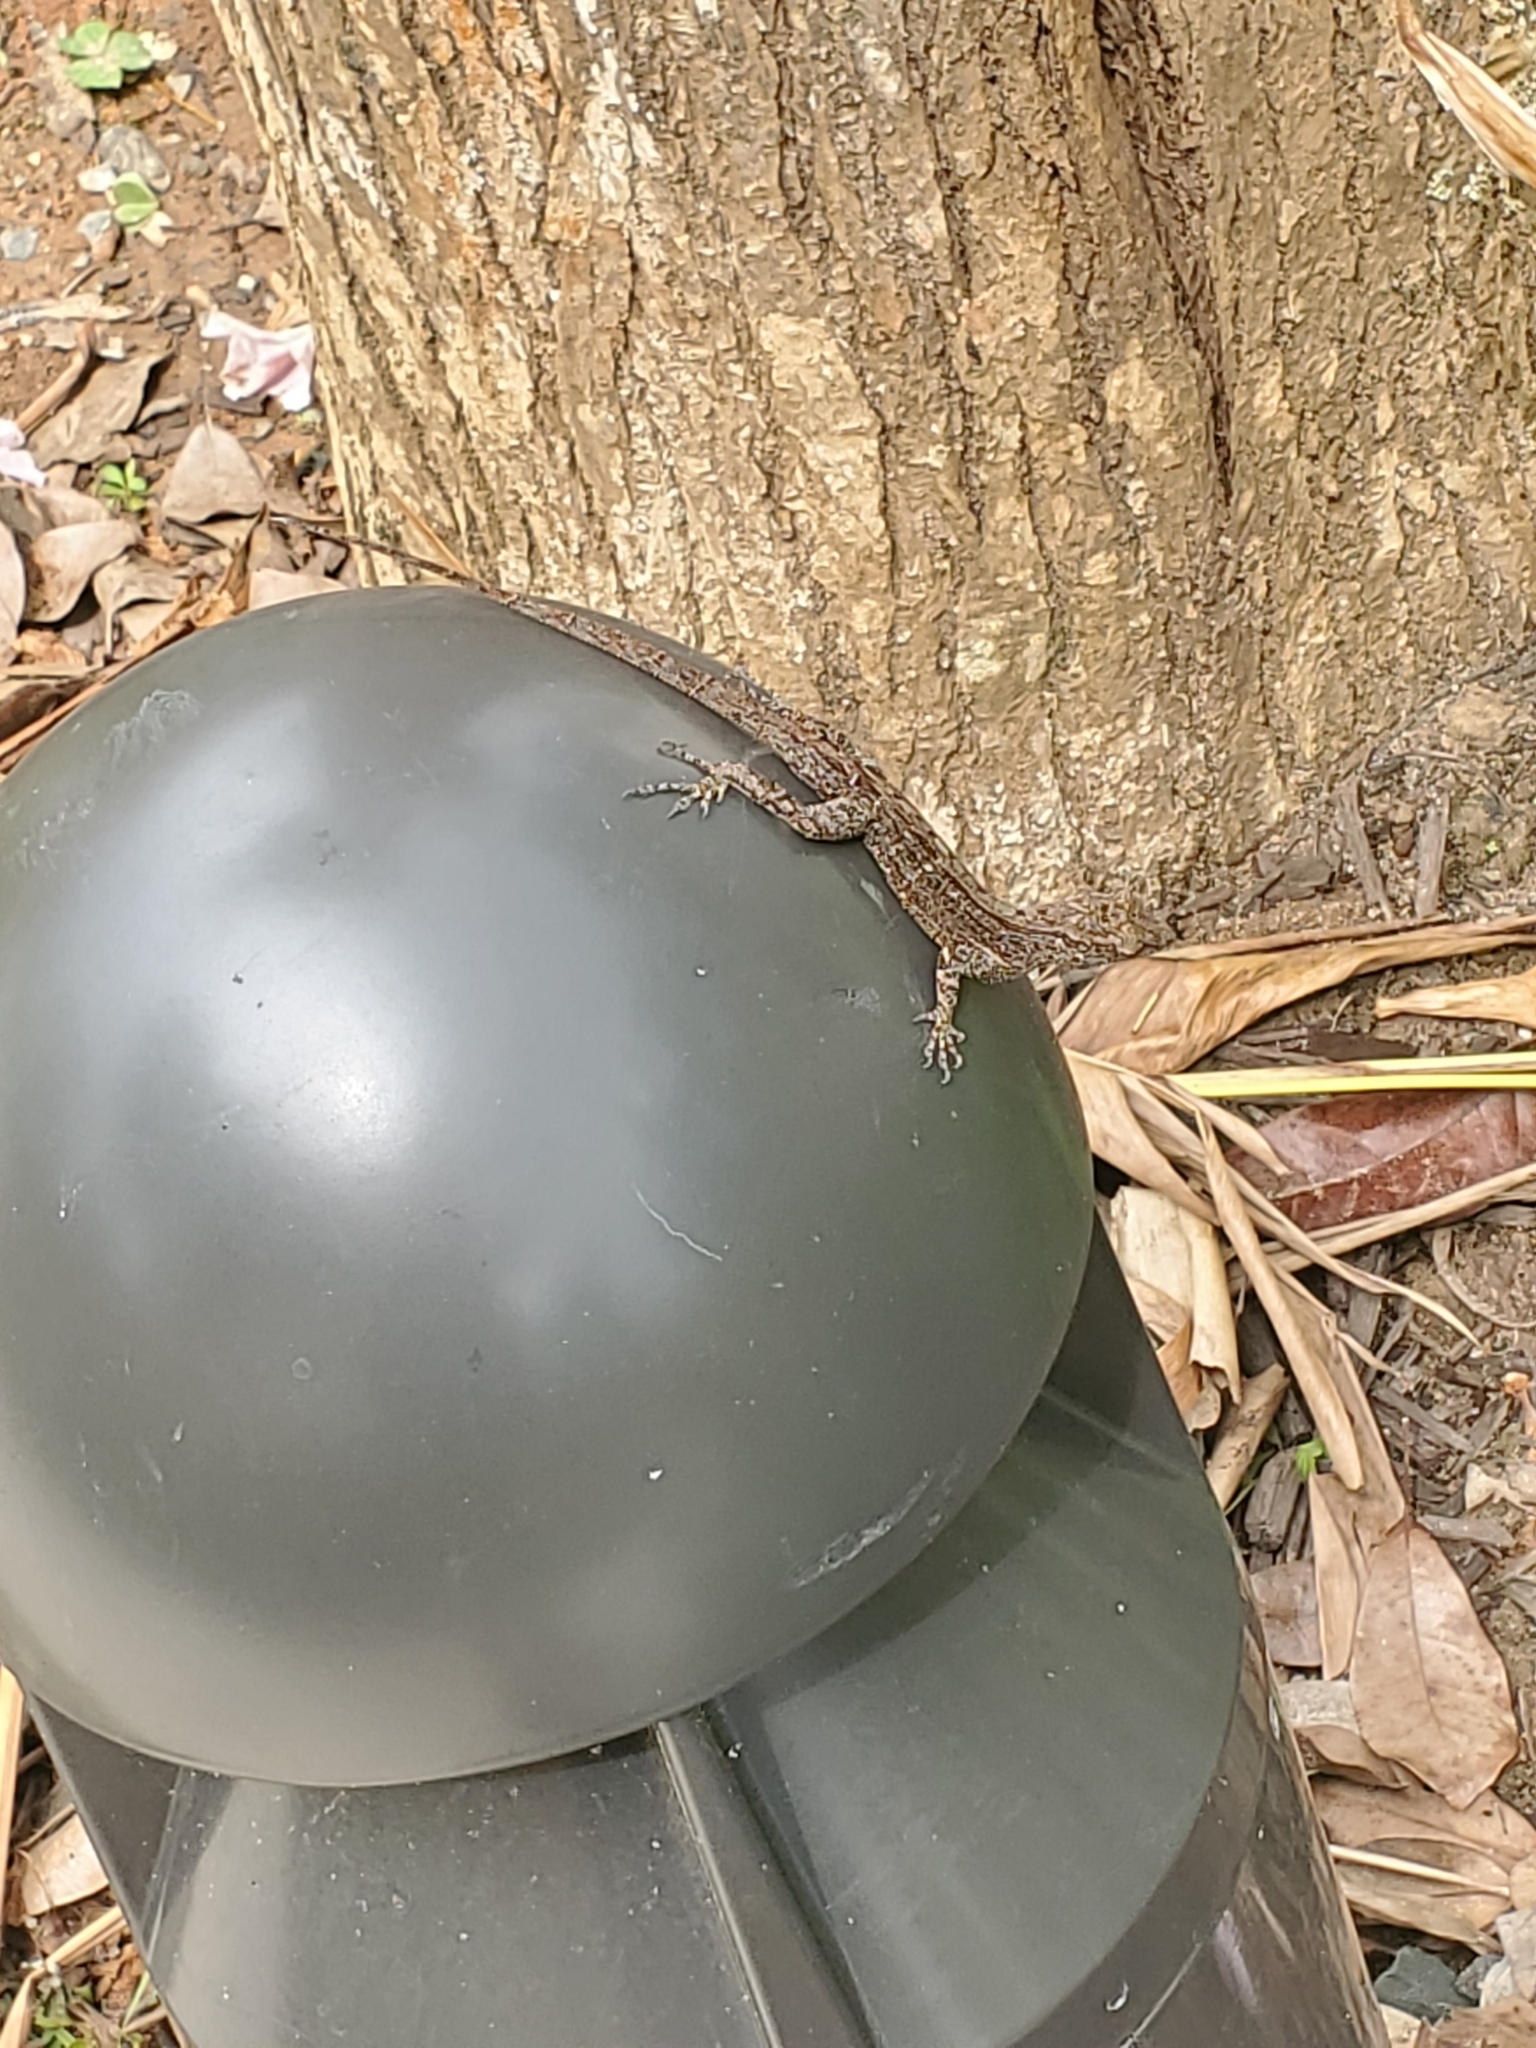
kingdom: Animalia
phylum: Chordata
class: Squamata
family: Dactyloidae
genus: Anolis
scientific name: Anolis cristatellus
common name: Crested anole
